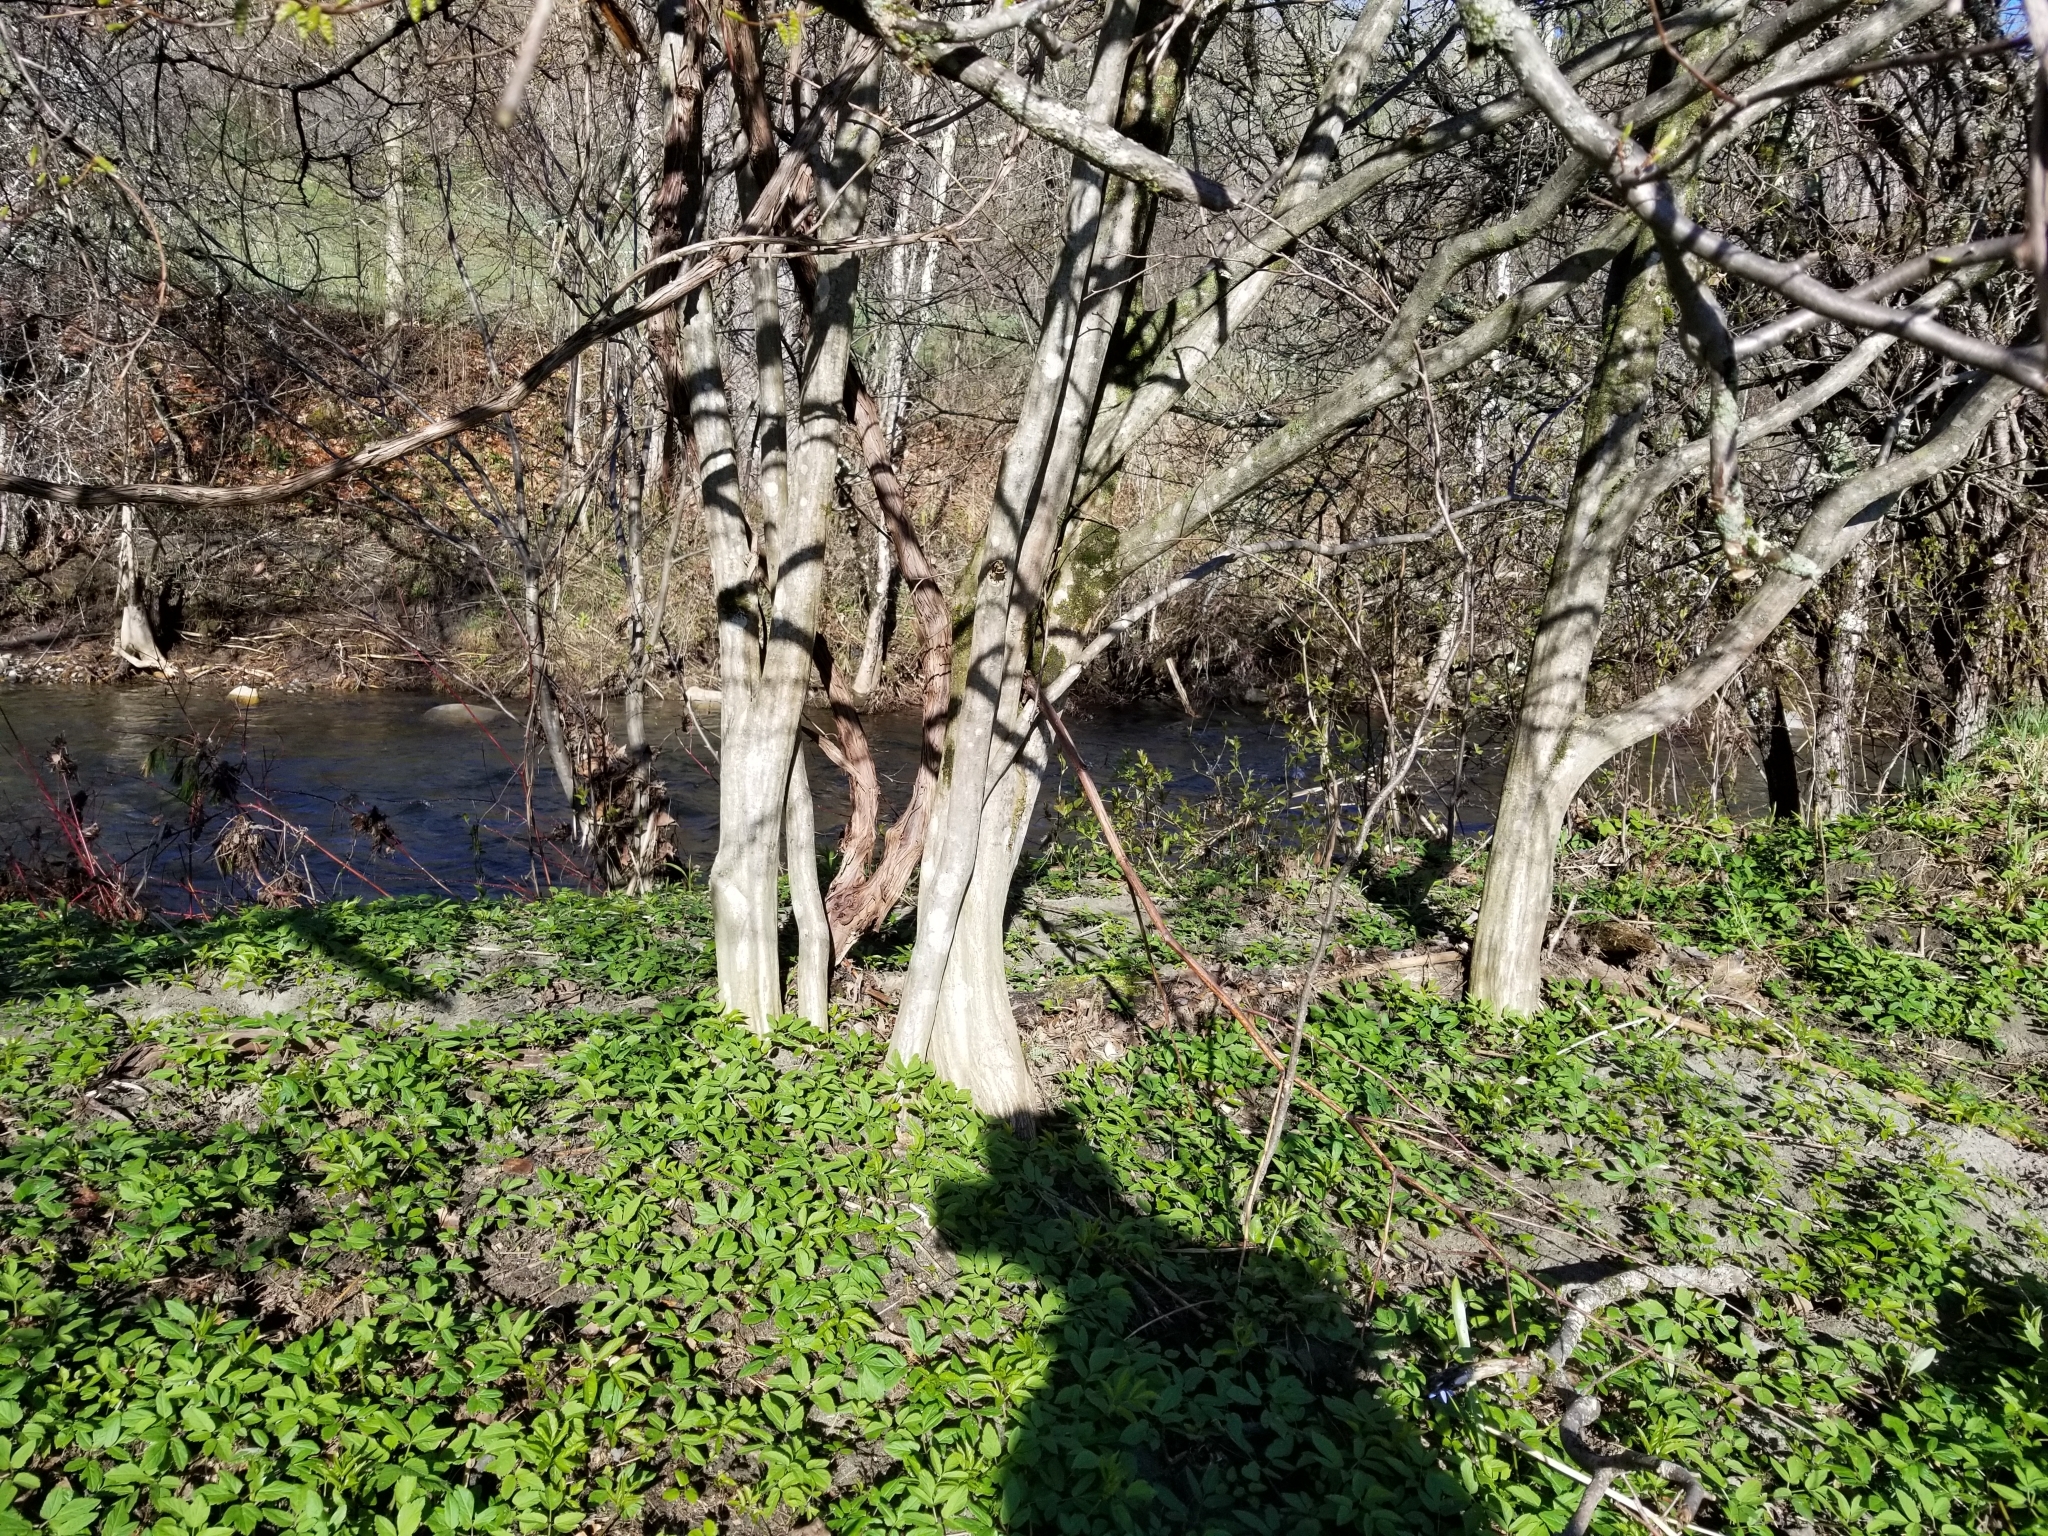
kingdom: Plantae
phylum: Tracheophyta
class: Magnoliopsida
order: Fagales
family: Betulaceae
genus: Carpinus
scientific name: Carpinus caroliniana
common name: American hornbeam
